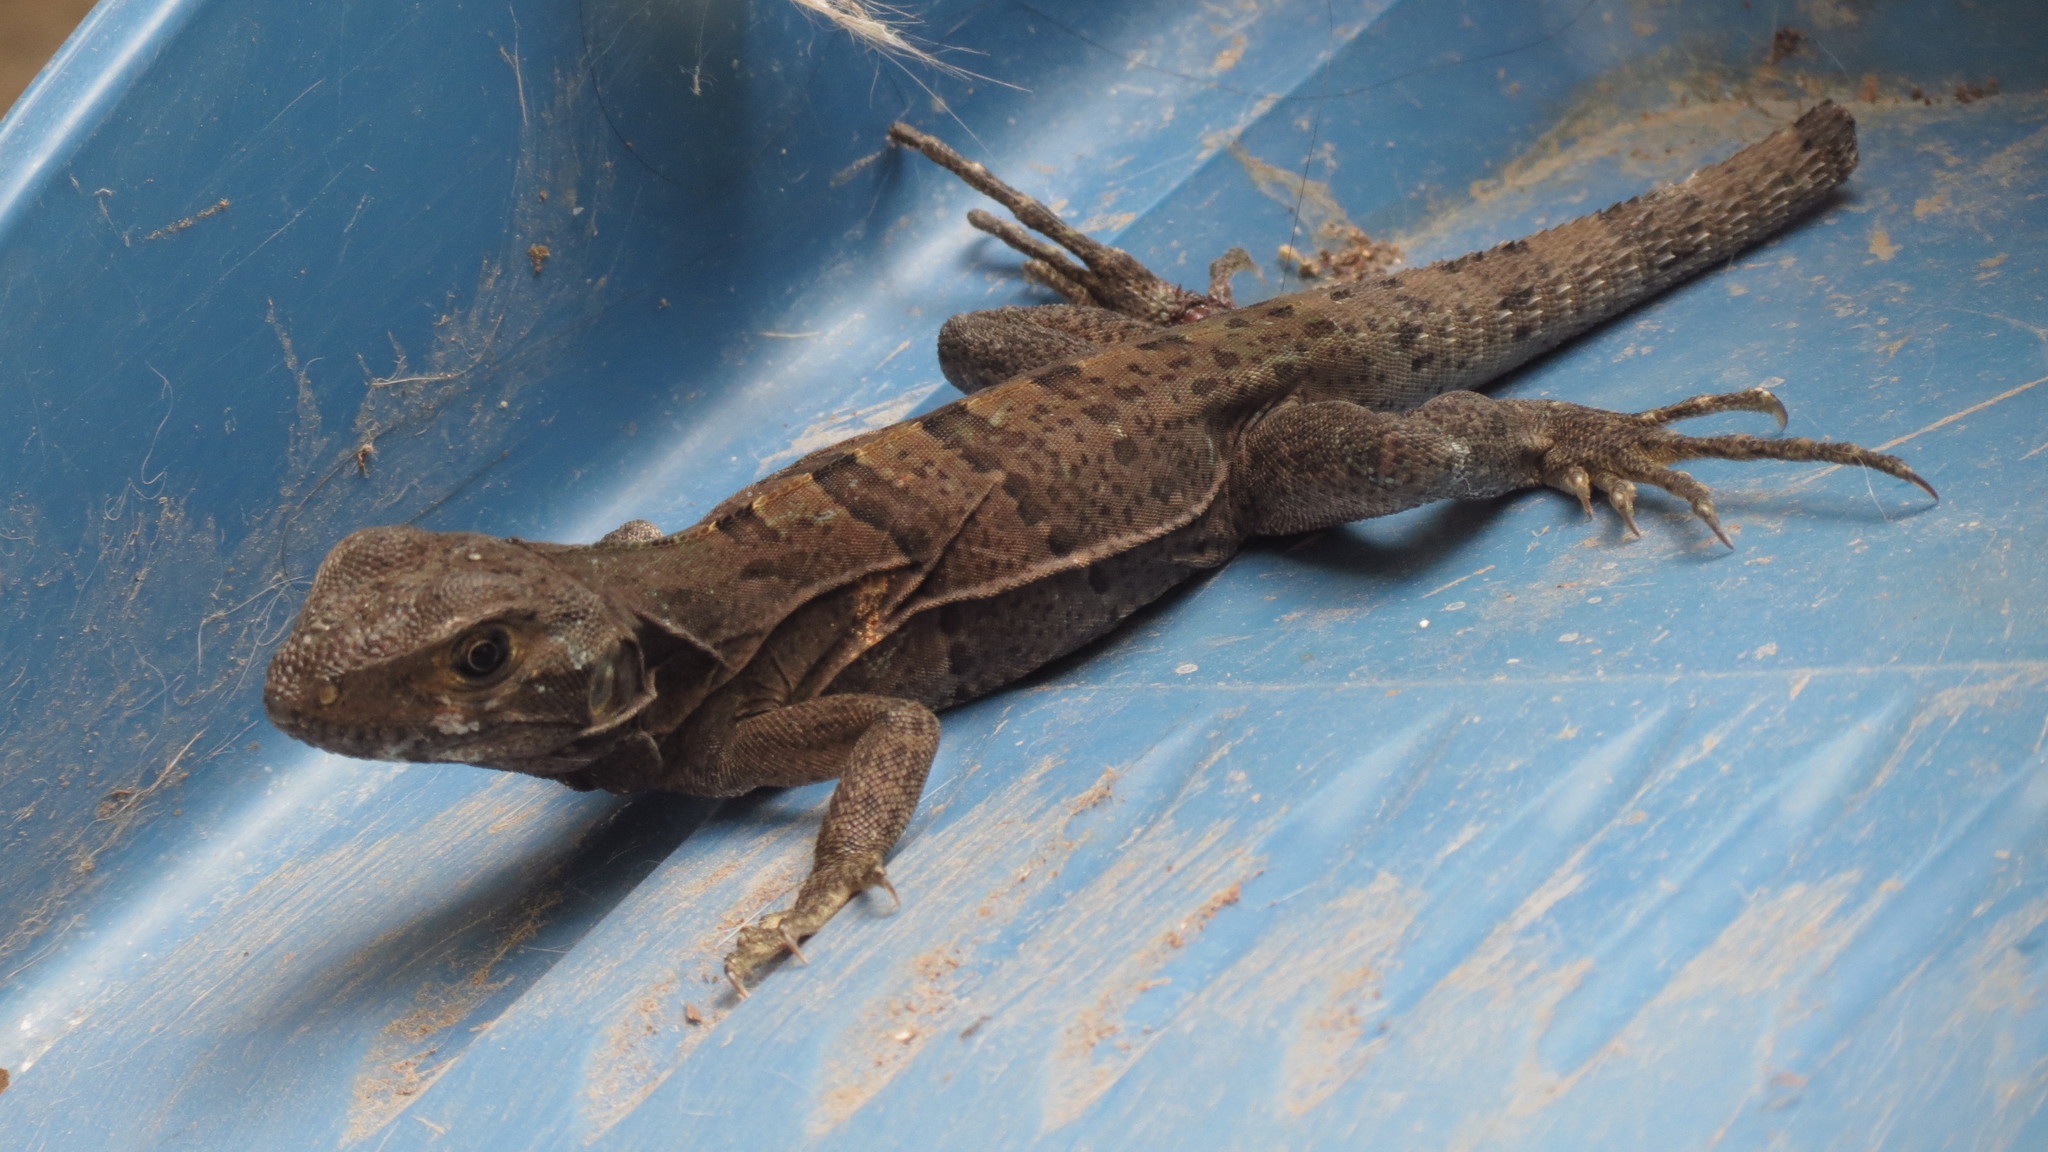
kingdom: Animalia
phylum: Chordata
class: Squamata
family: Iguanidae
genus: Ctenosaura
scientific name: Ctenosaura similis
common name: Black spiny-tailed iguana
